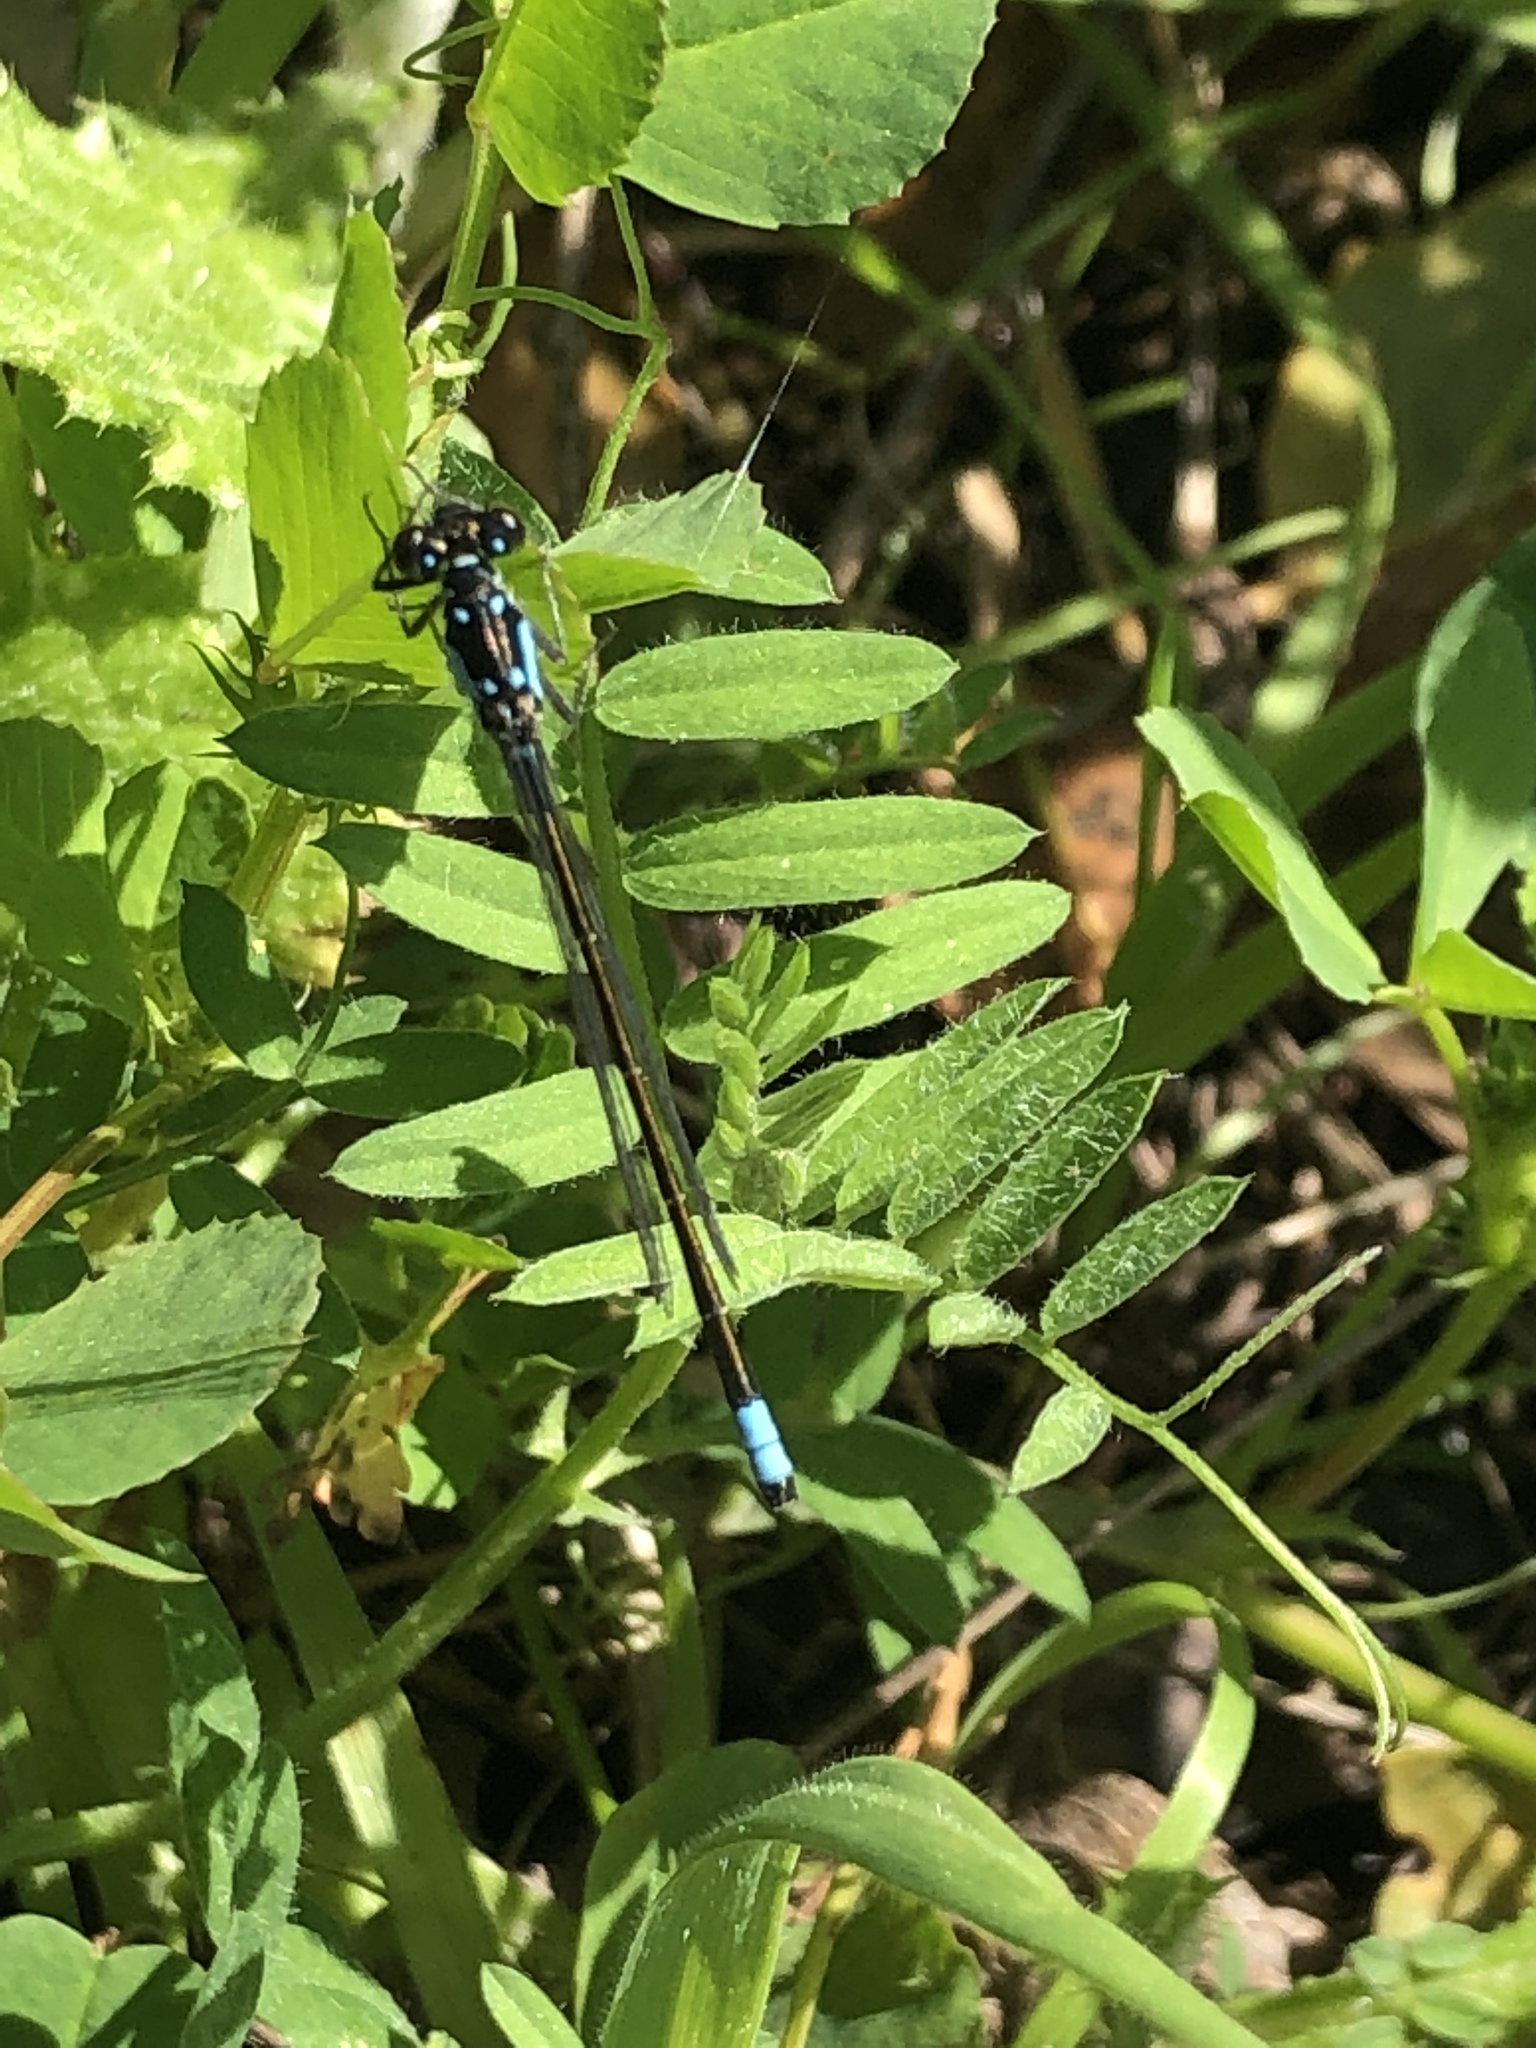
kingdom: Animalia
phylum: Arthropoda
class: Insecta
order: Odonata
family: Coenagrionidae
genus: Ischnura
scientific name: Ischnura cervula
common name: Pacific forktail
